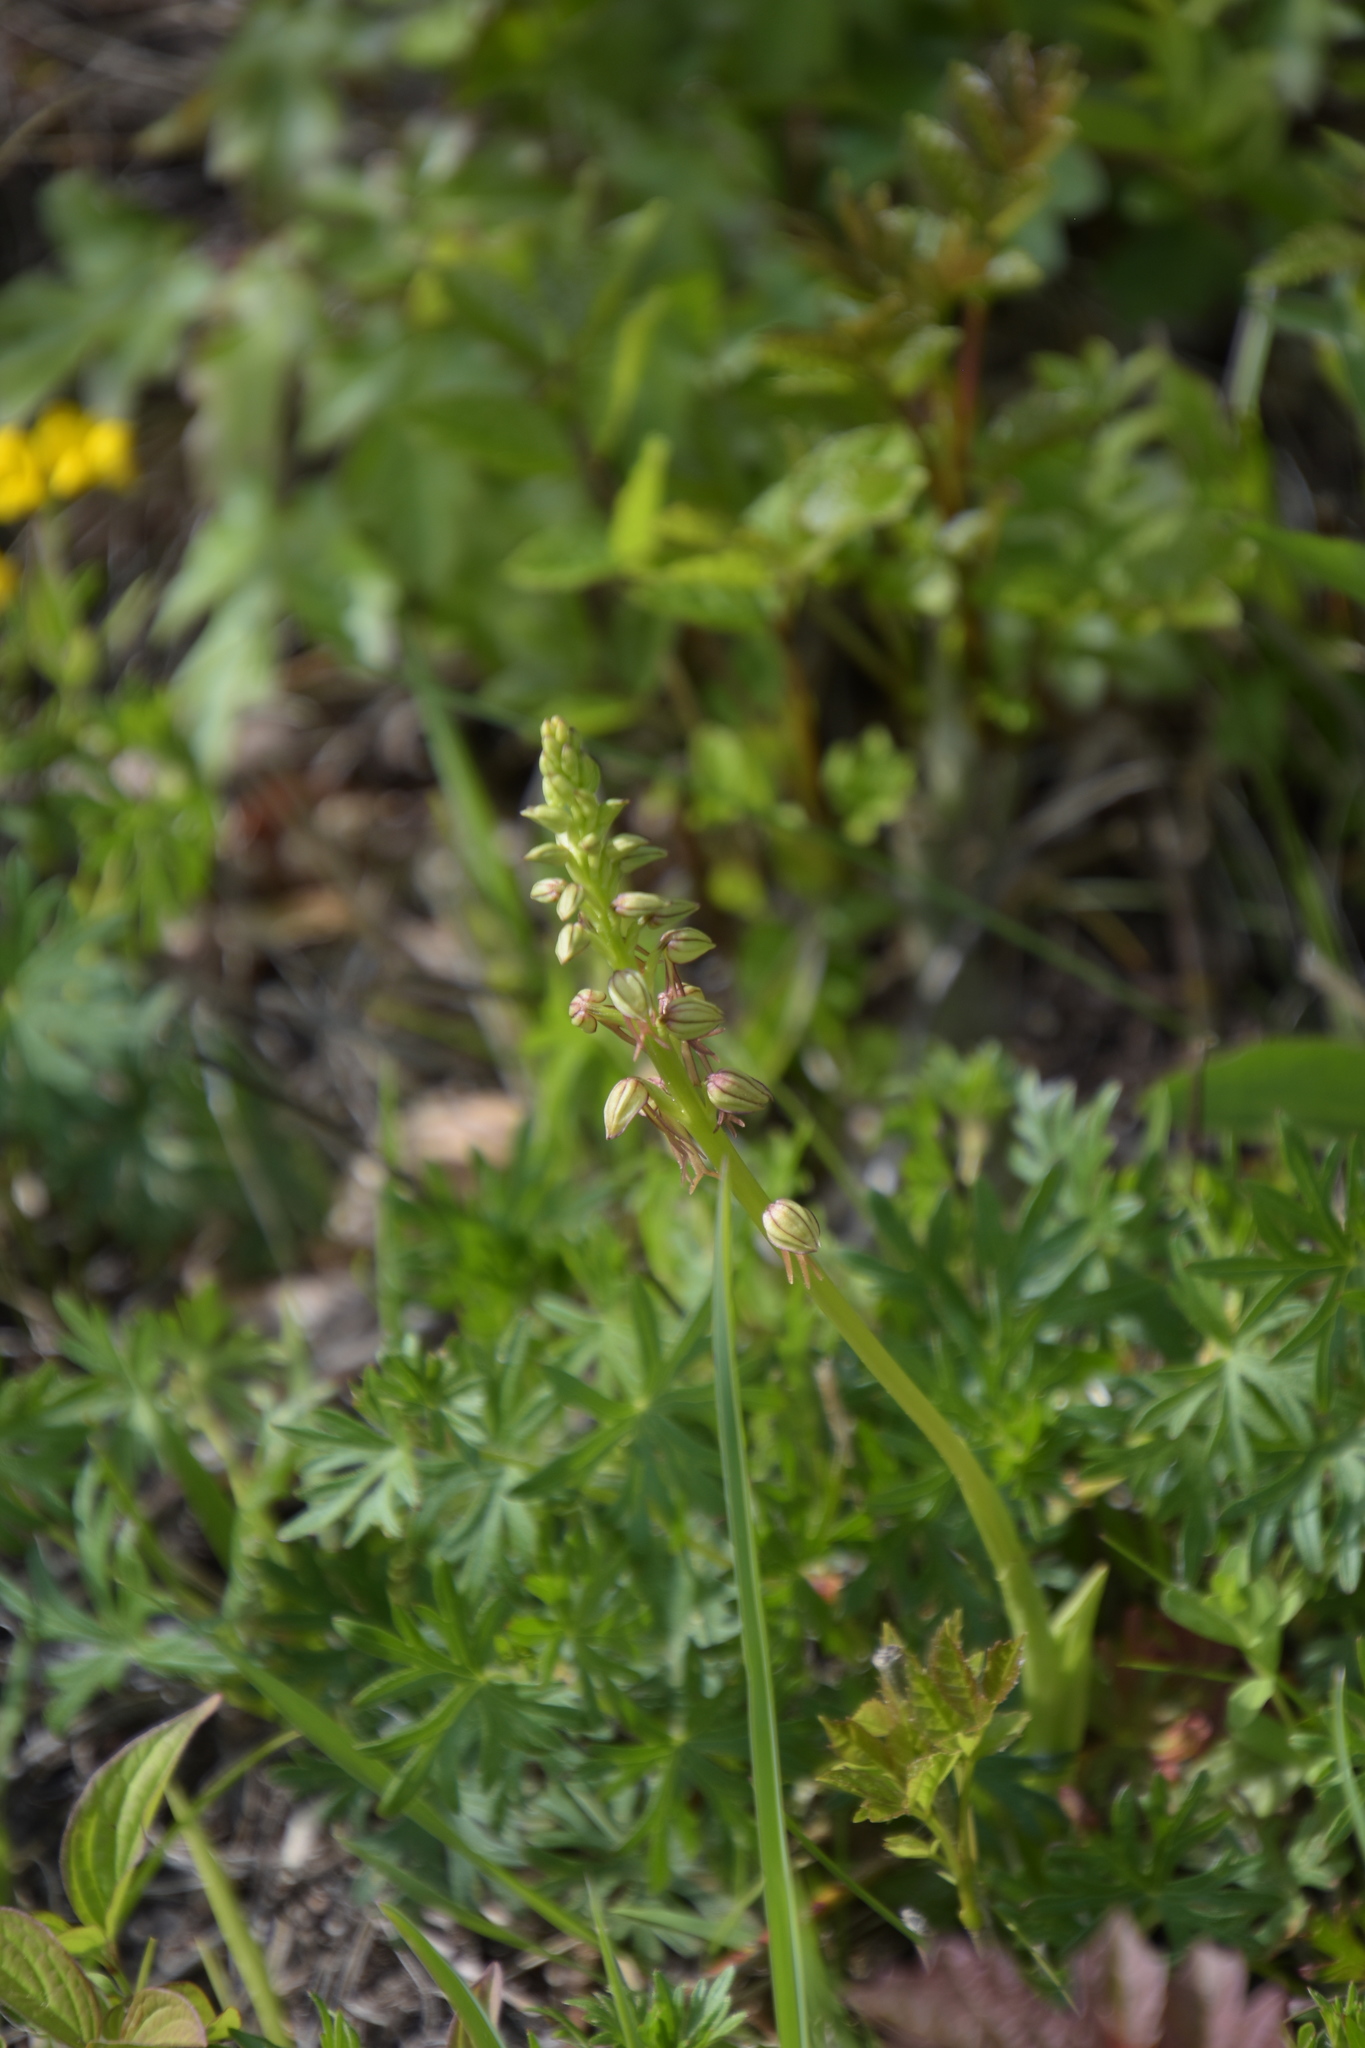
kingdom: Plantae
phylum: Tracheophyta
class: Liliopsida
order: Asparagales
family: Orchidaceae
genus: Orchis
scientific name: Orchis anthropophora
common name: Man orchid
